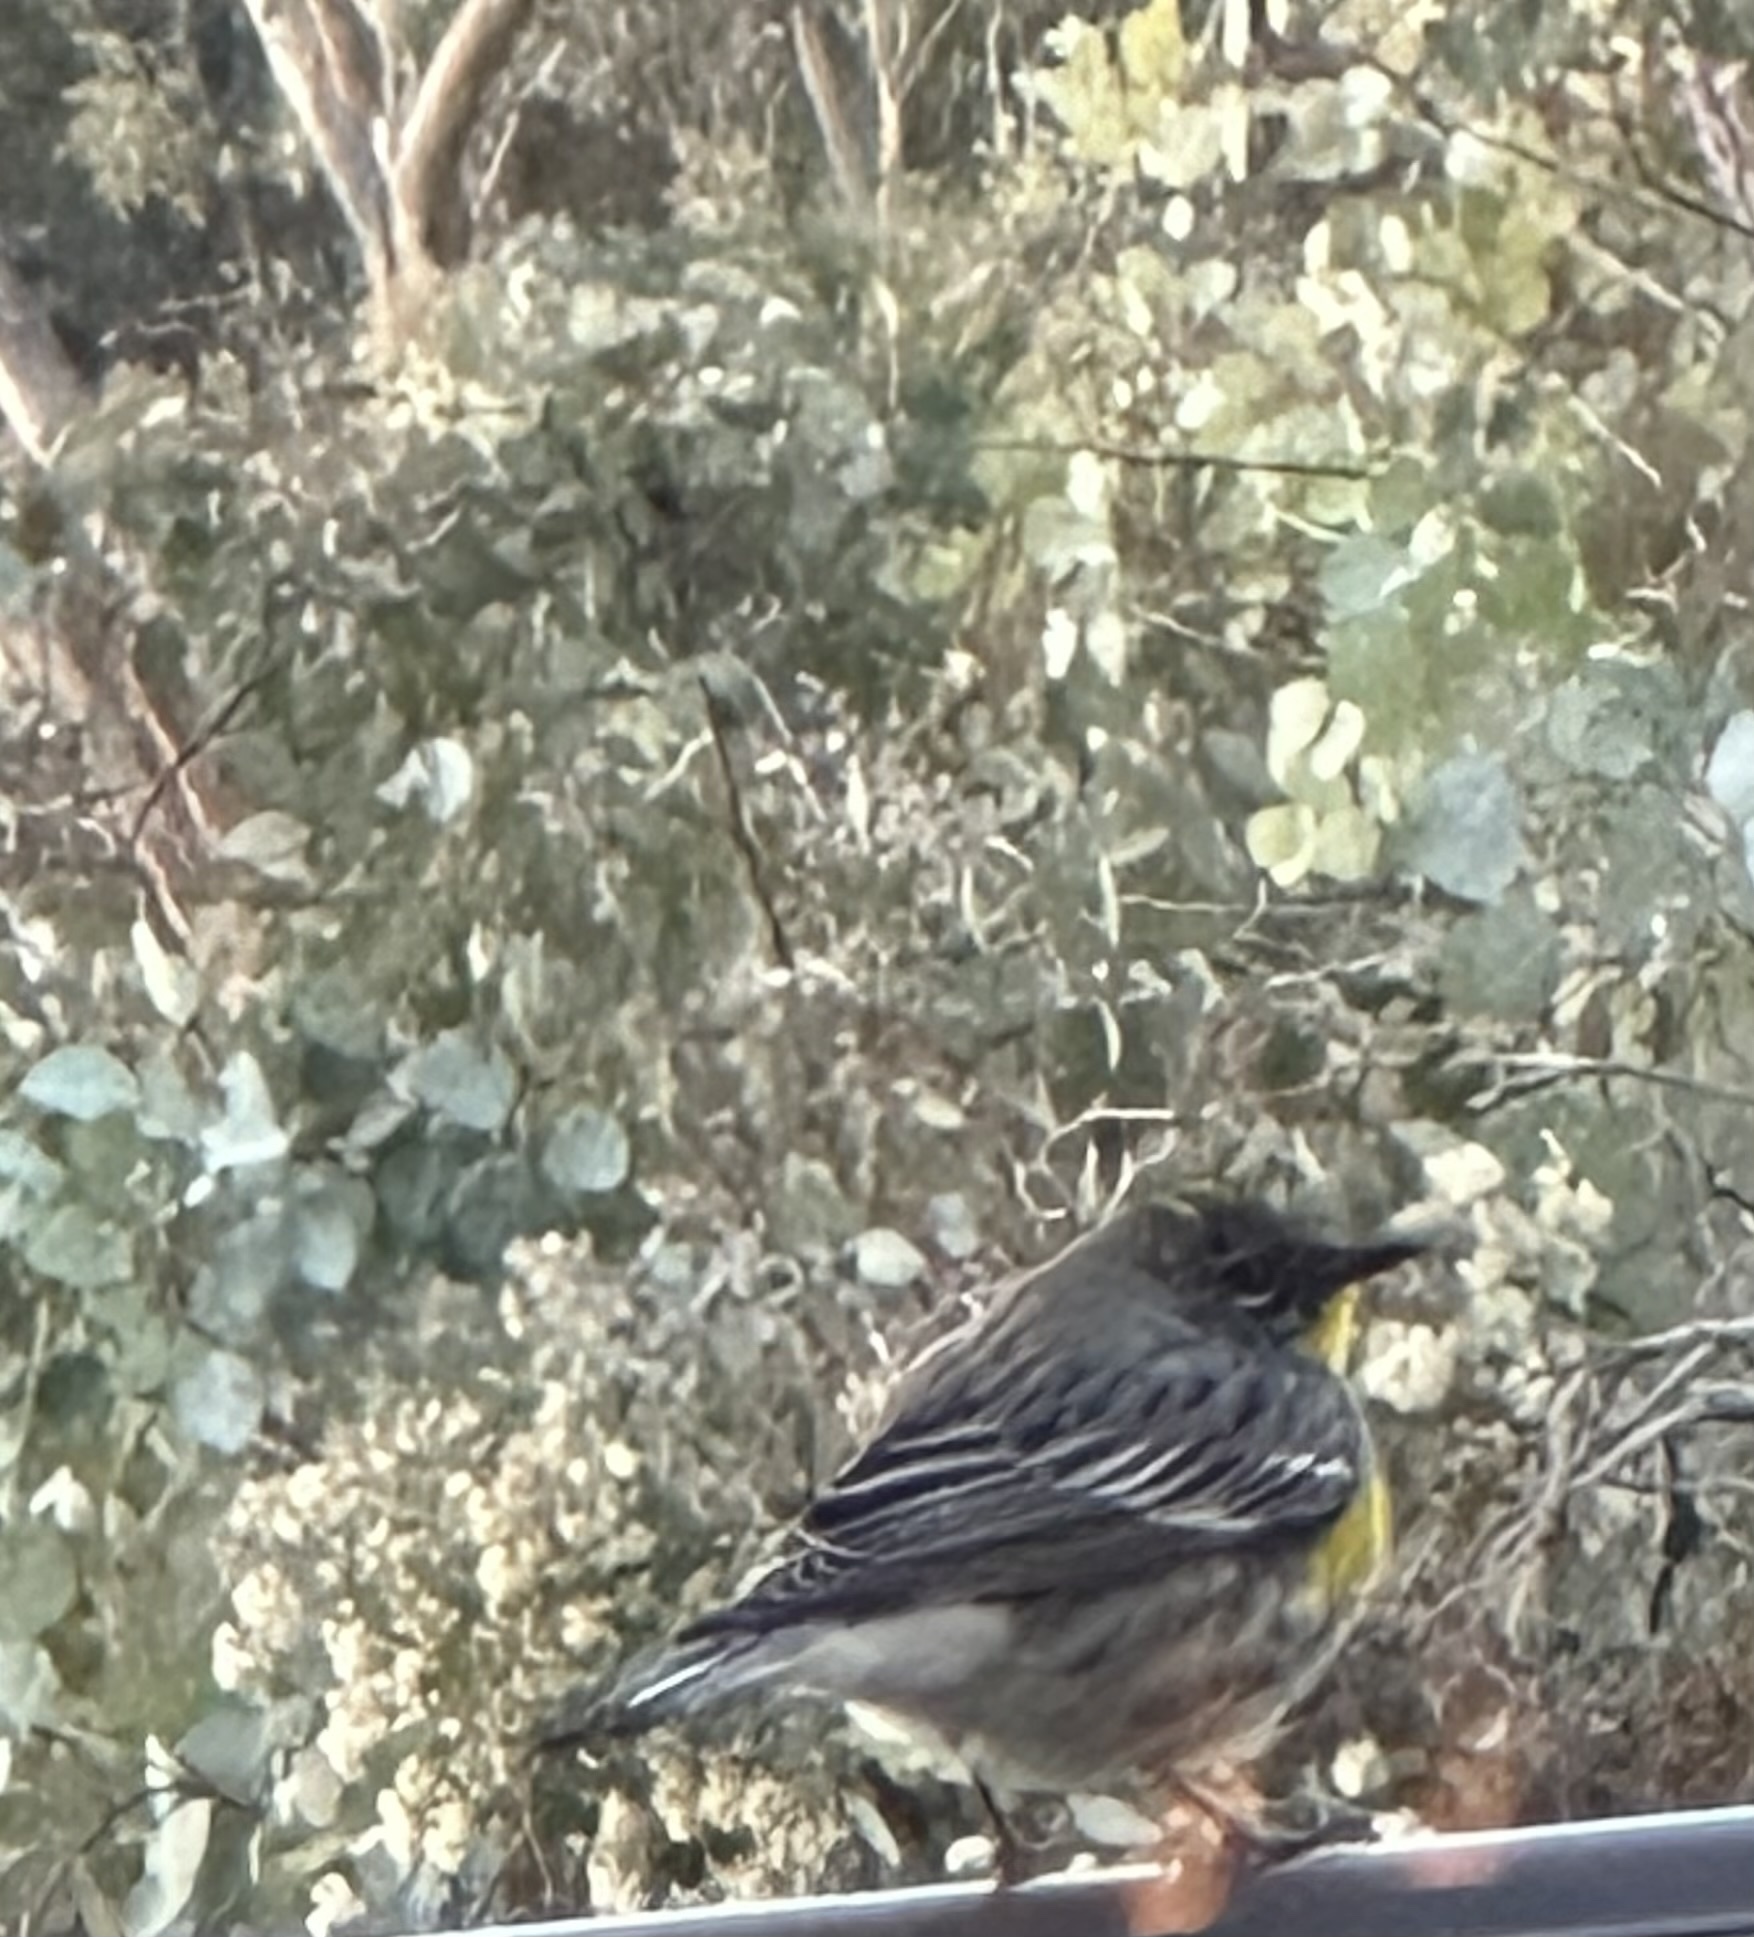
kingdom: Animalia
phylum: Chordata
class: Aves
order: Passeriformes
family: Parulidae
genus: Setophaga
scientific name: Setophaga coronata
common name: Myrtle warbler
